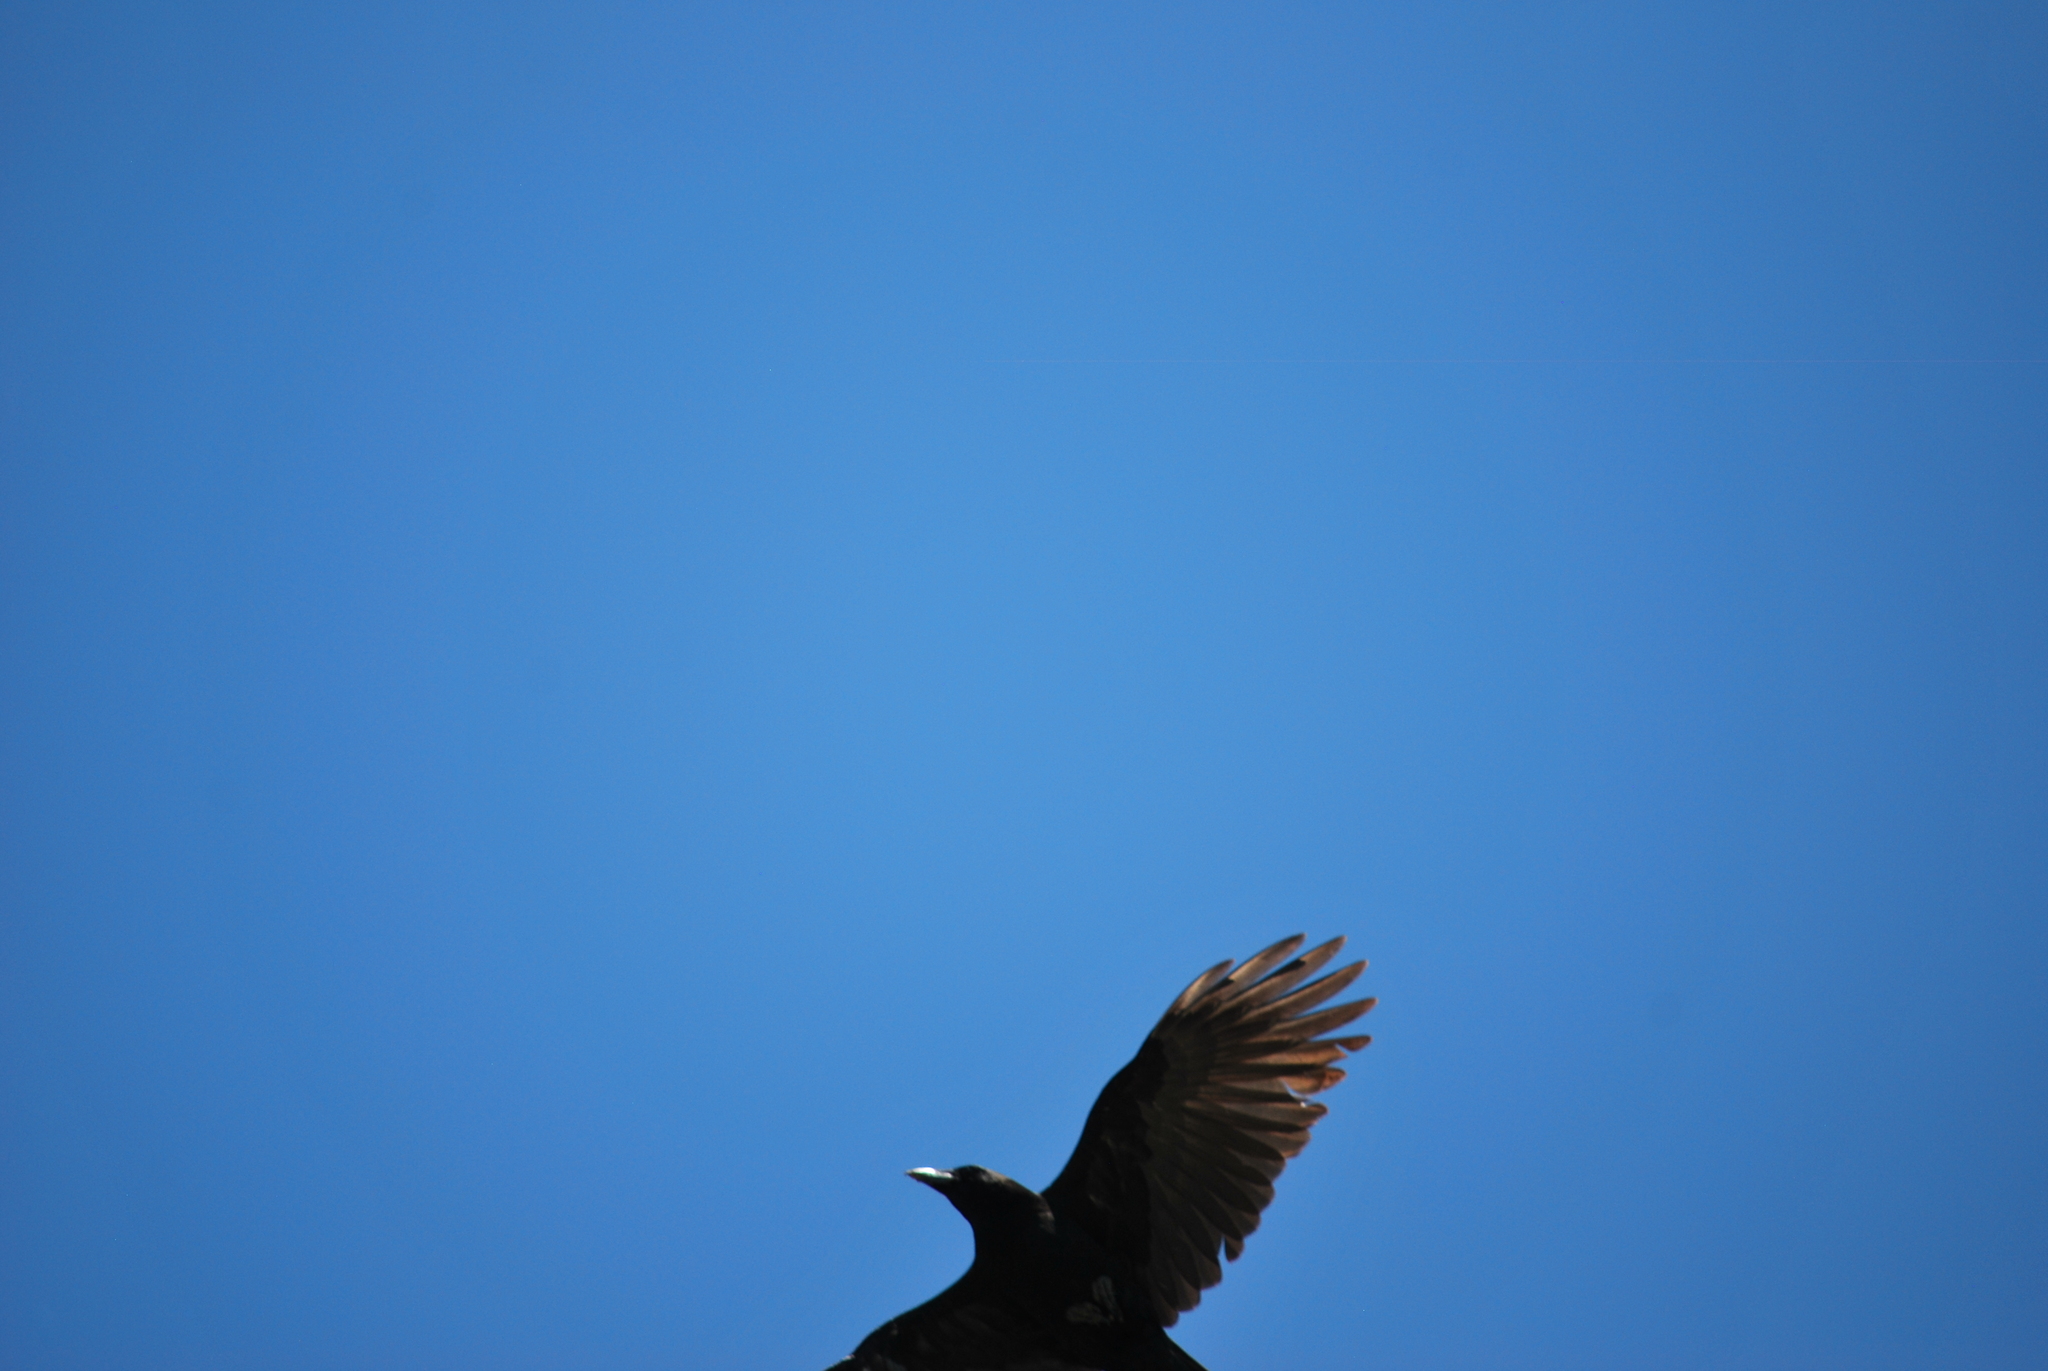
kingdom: Animalia
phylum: Chordata
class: Aves
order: Passeriformes
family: Corvidae
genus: Corvus
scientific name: Corvus brachyrhynchos
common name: American crow
